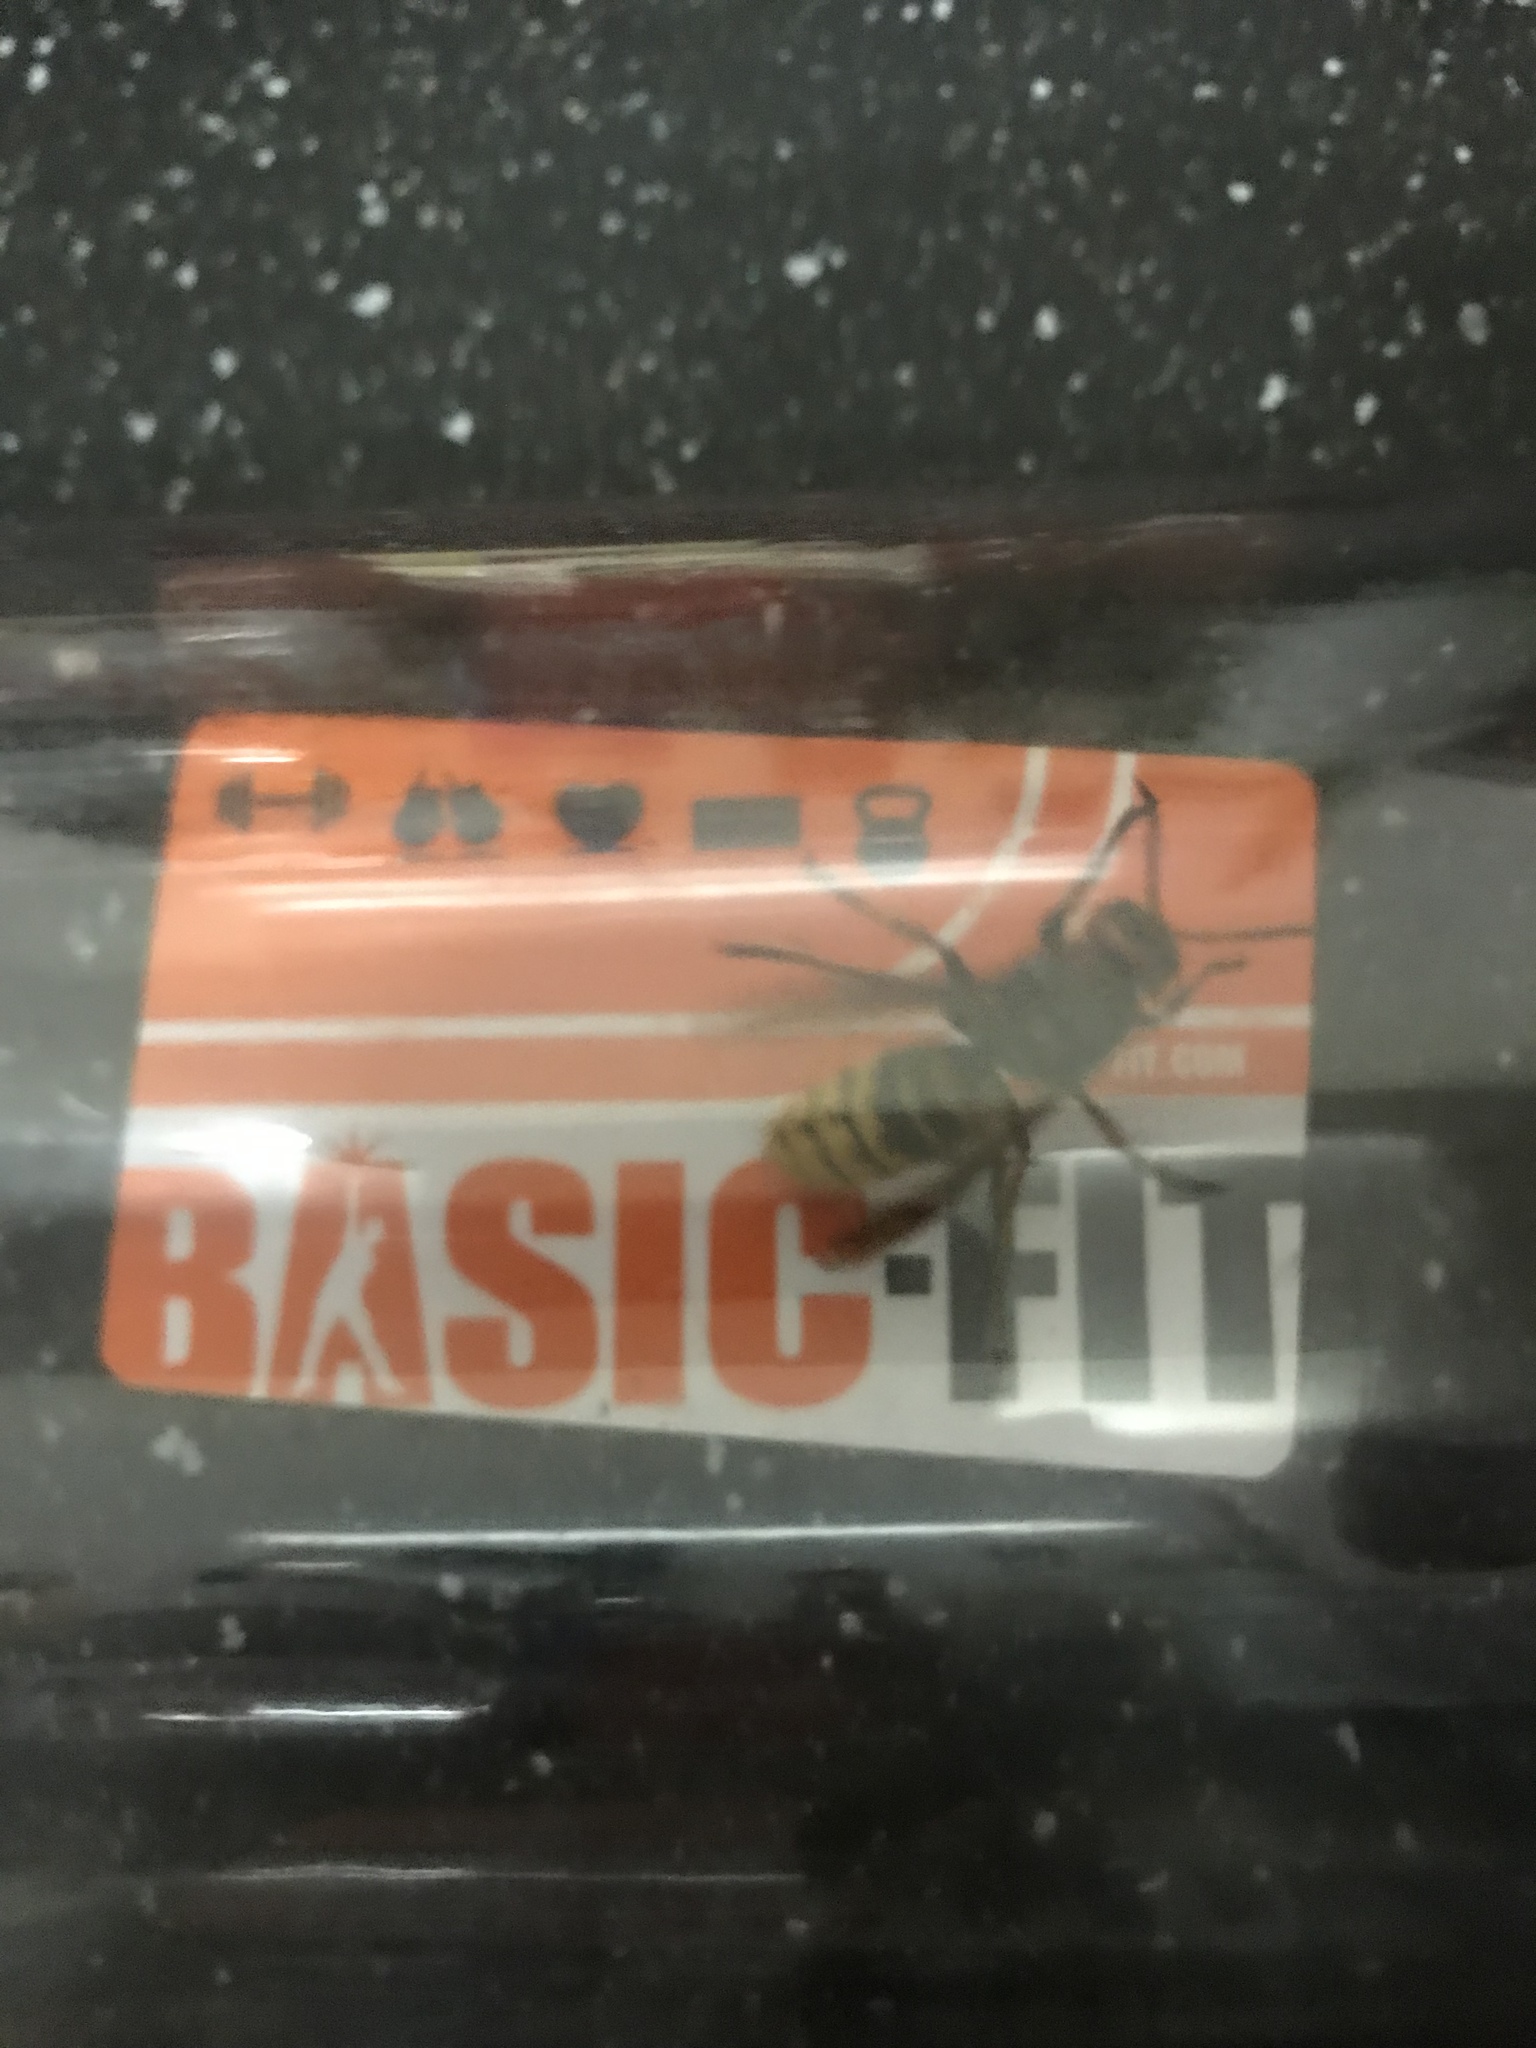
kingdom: Animalia
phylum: Arthropoda
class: Insecta
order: Hymenoptera
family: Vespidae
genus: Vespa
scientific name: Vespa crabro
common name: Hornet
